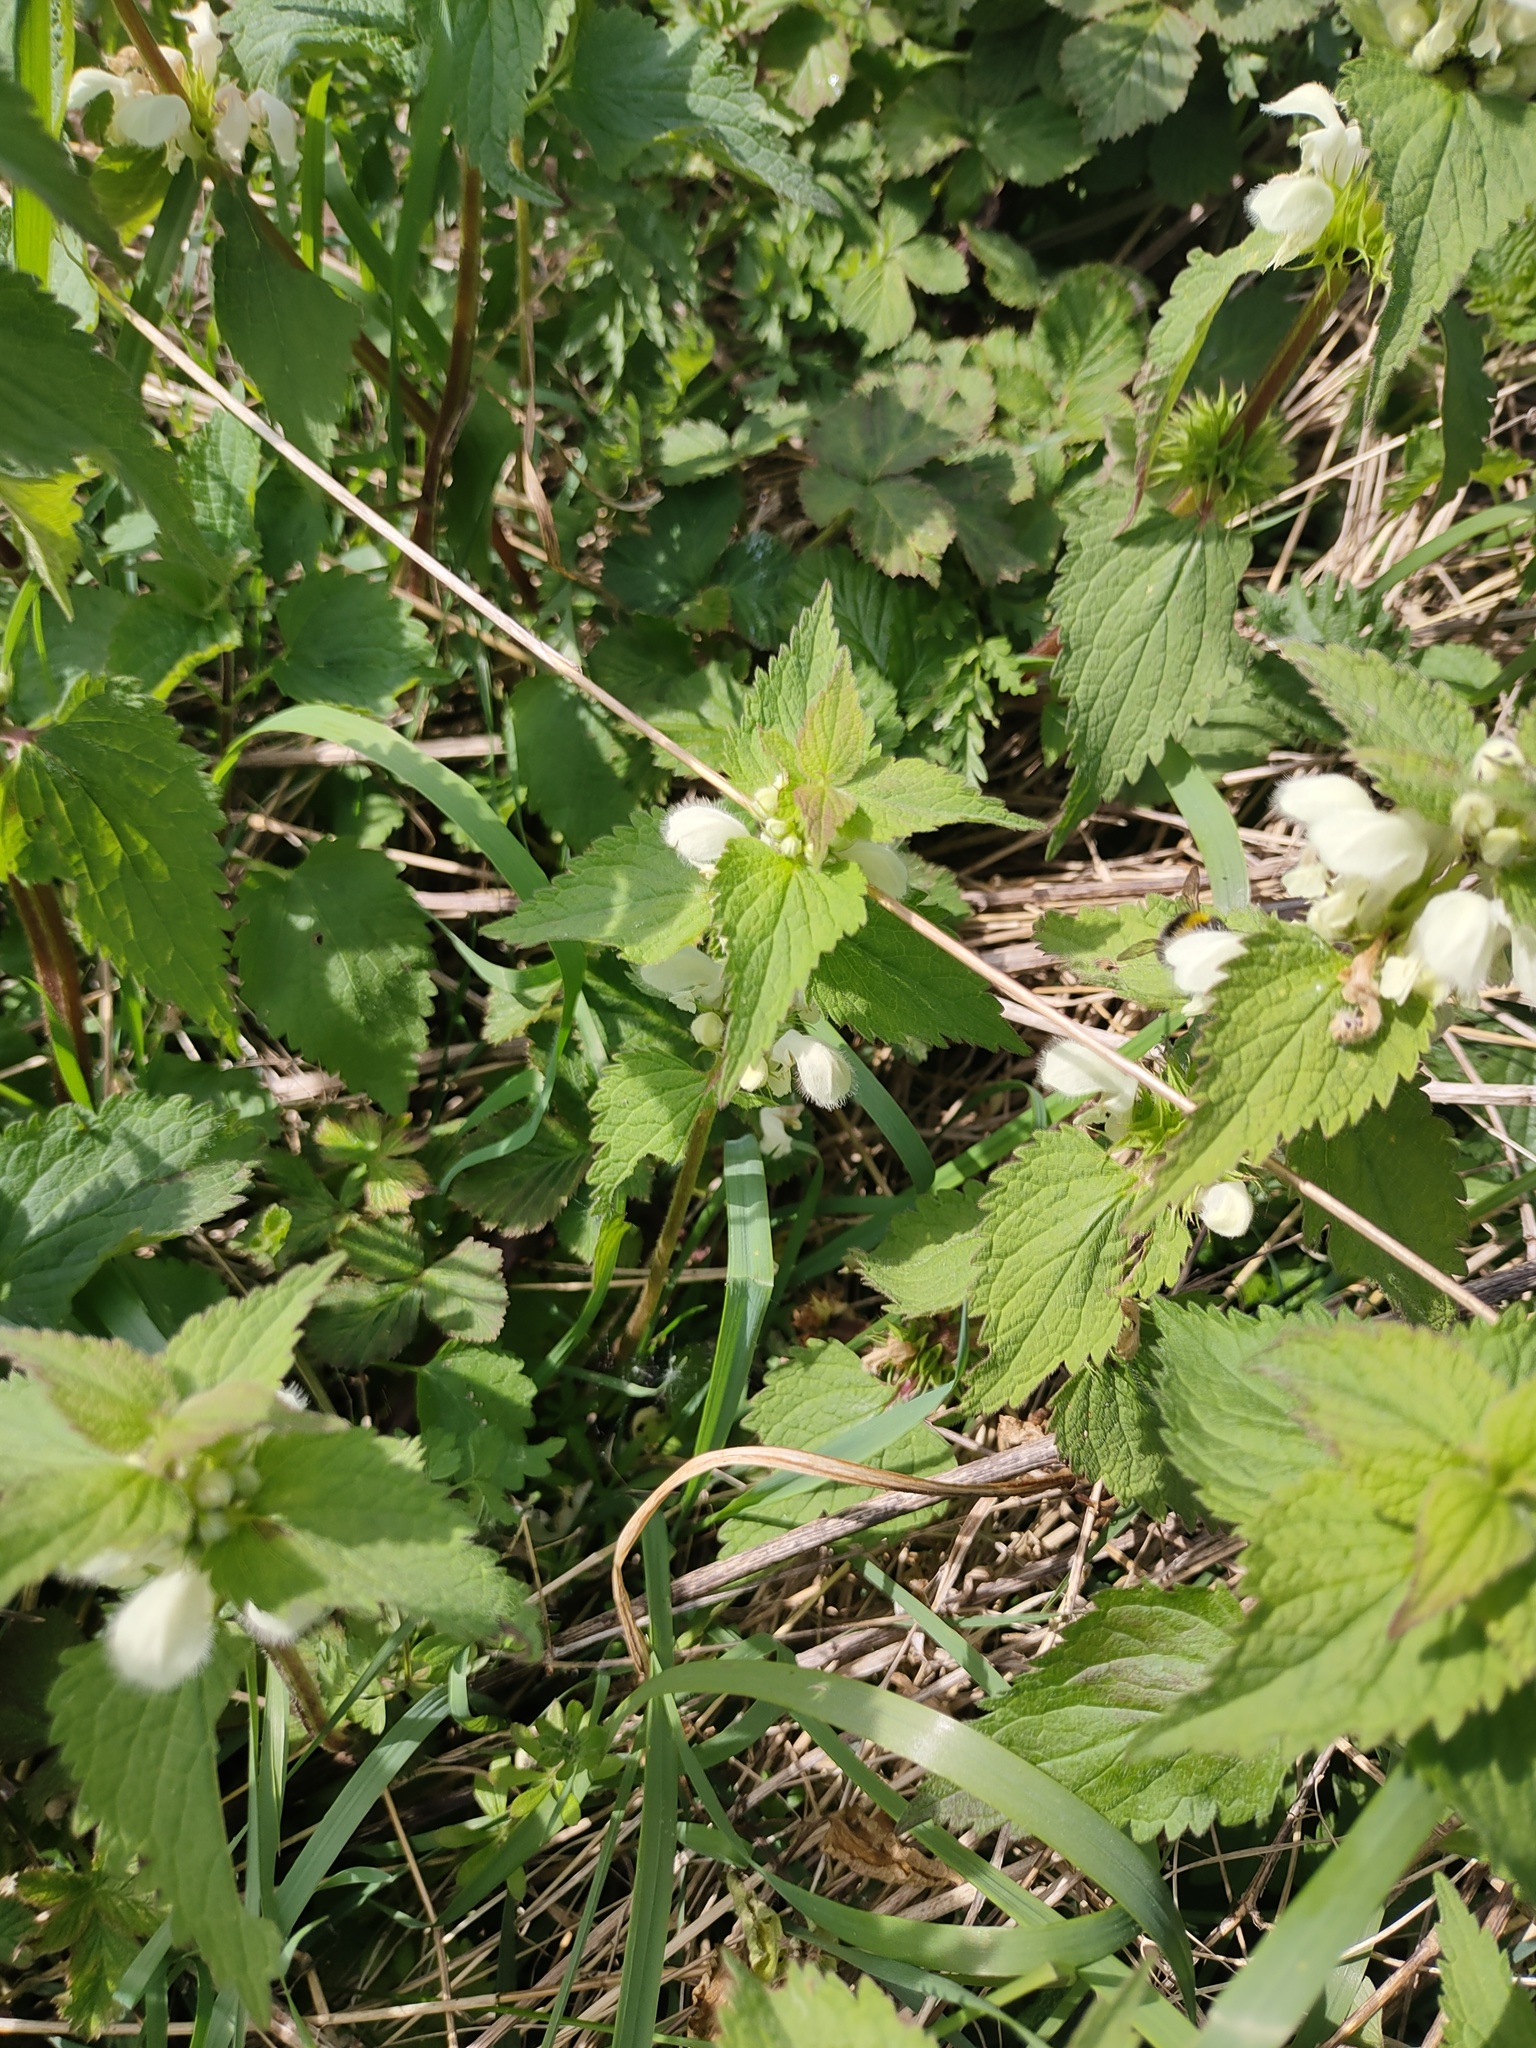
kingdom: Plantae
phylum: Tracheophyta
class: Magnoliopsida
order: Lamiales
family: Lamiaceae
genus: Lamium
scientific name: Lamium album
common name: White dead-nettle
